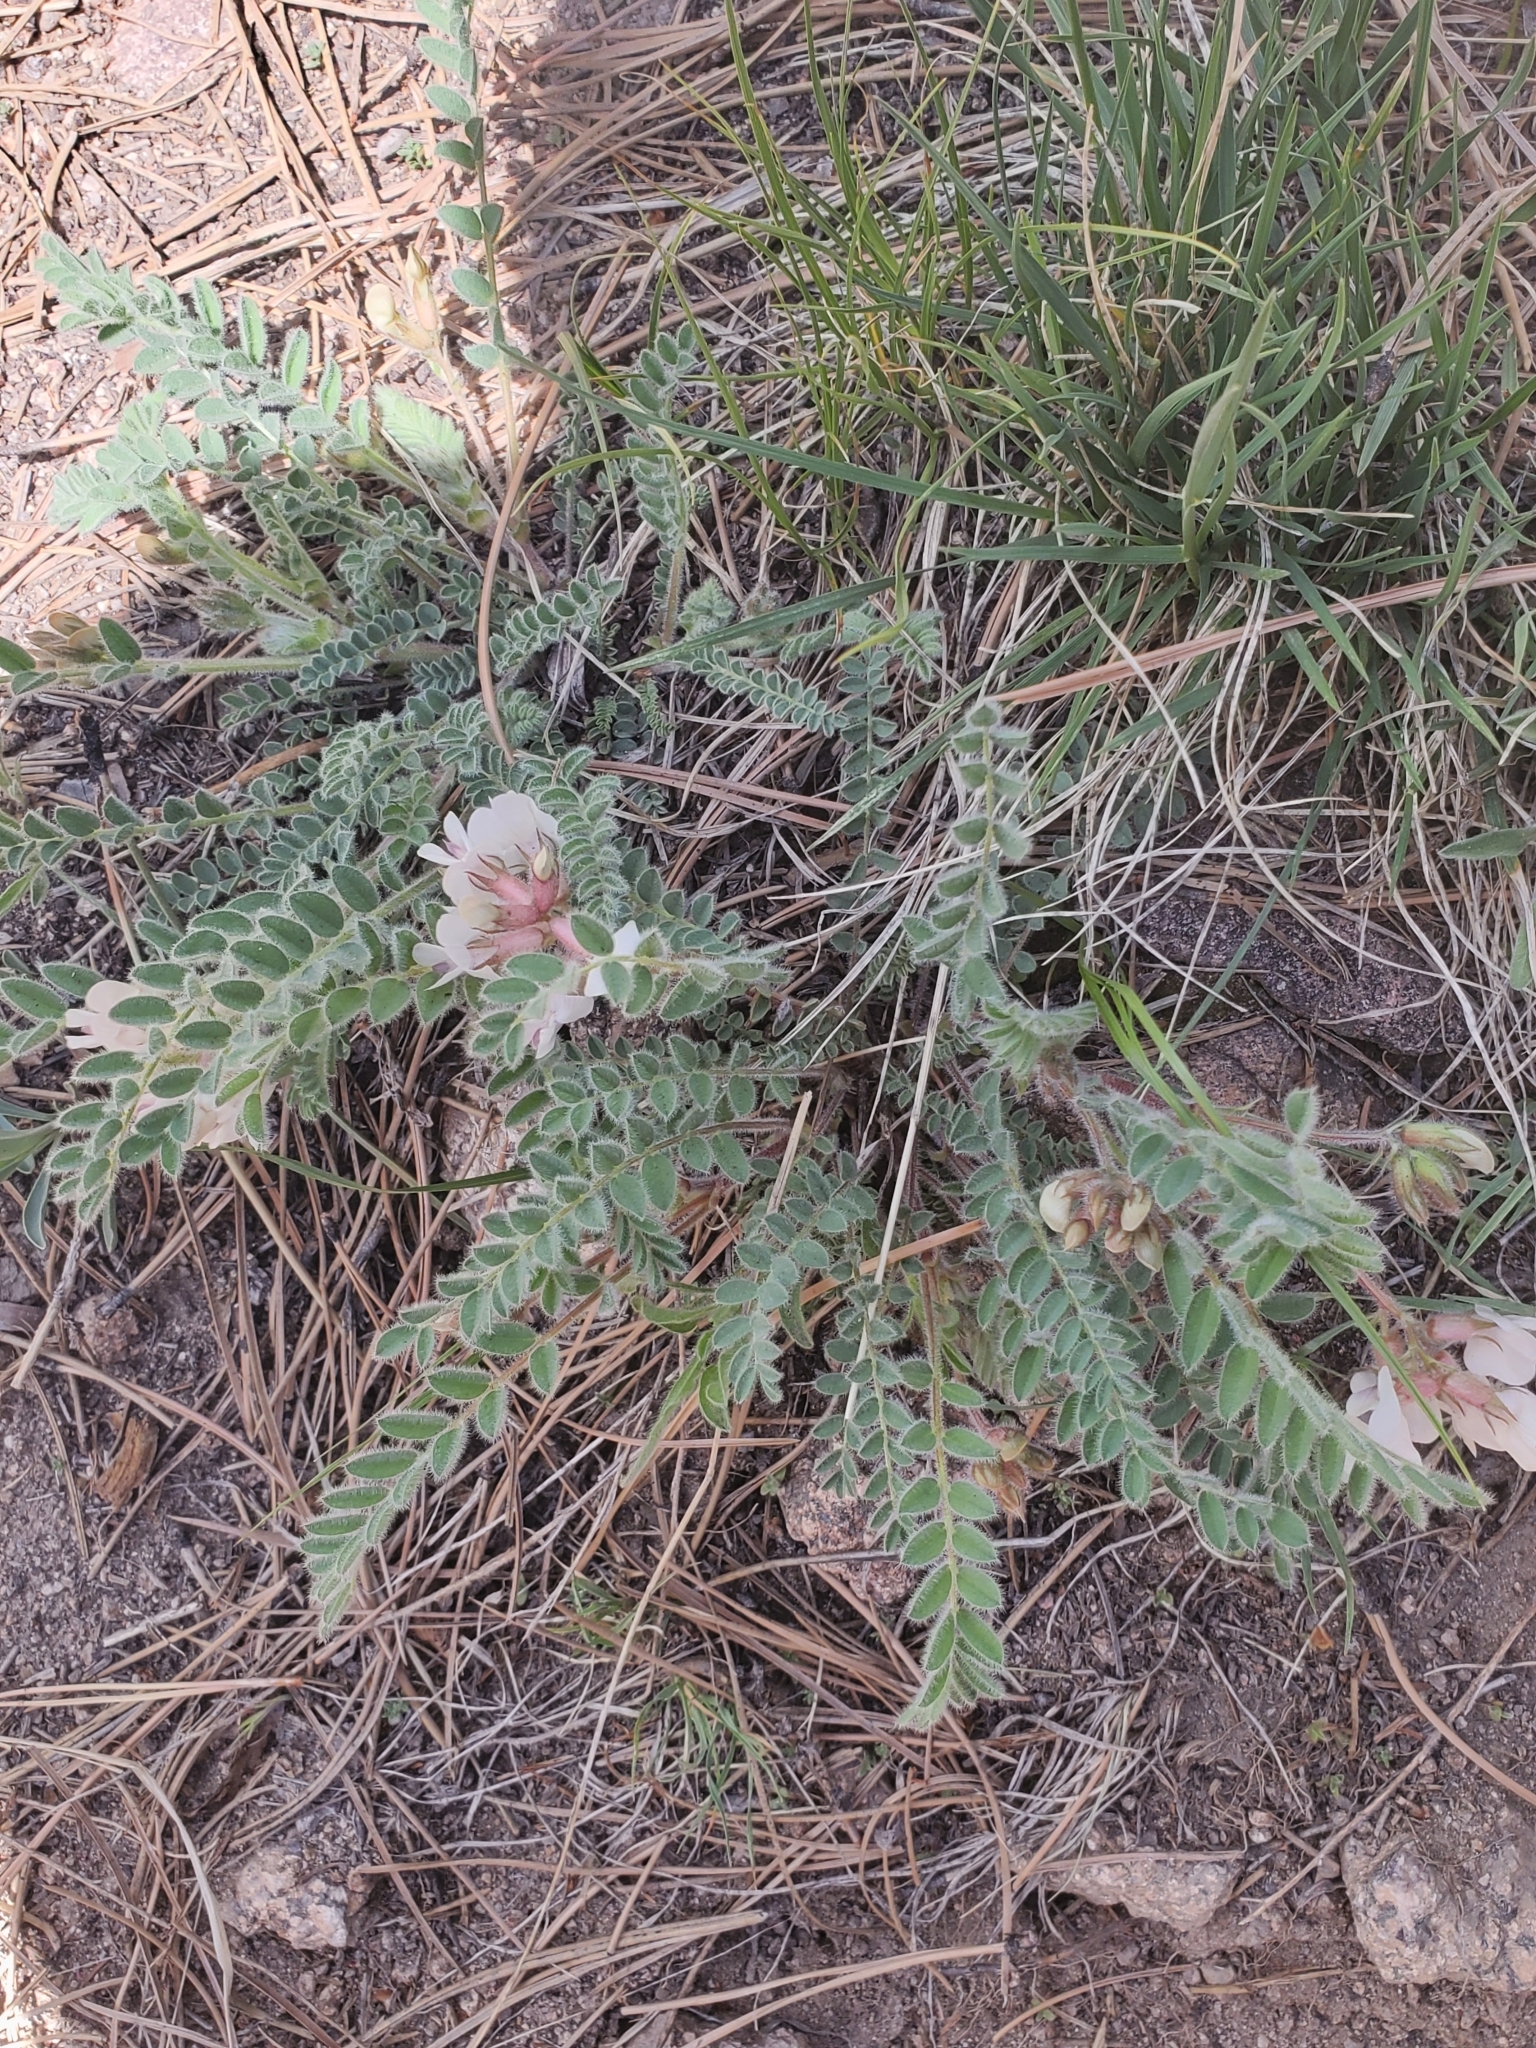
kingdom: Plantae
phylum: Tracheophyta
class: Magnoliopsida
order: Fabales
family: Fabaceae
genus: Astragalus
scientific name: Astragalus parryi
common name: Parry milk-vetch
